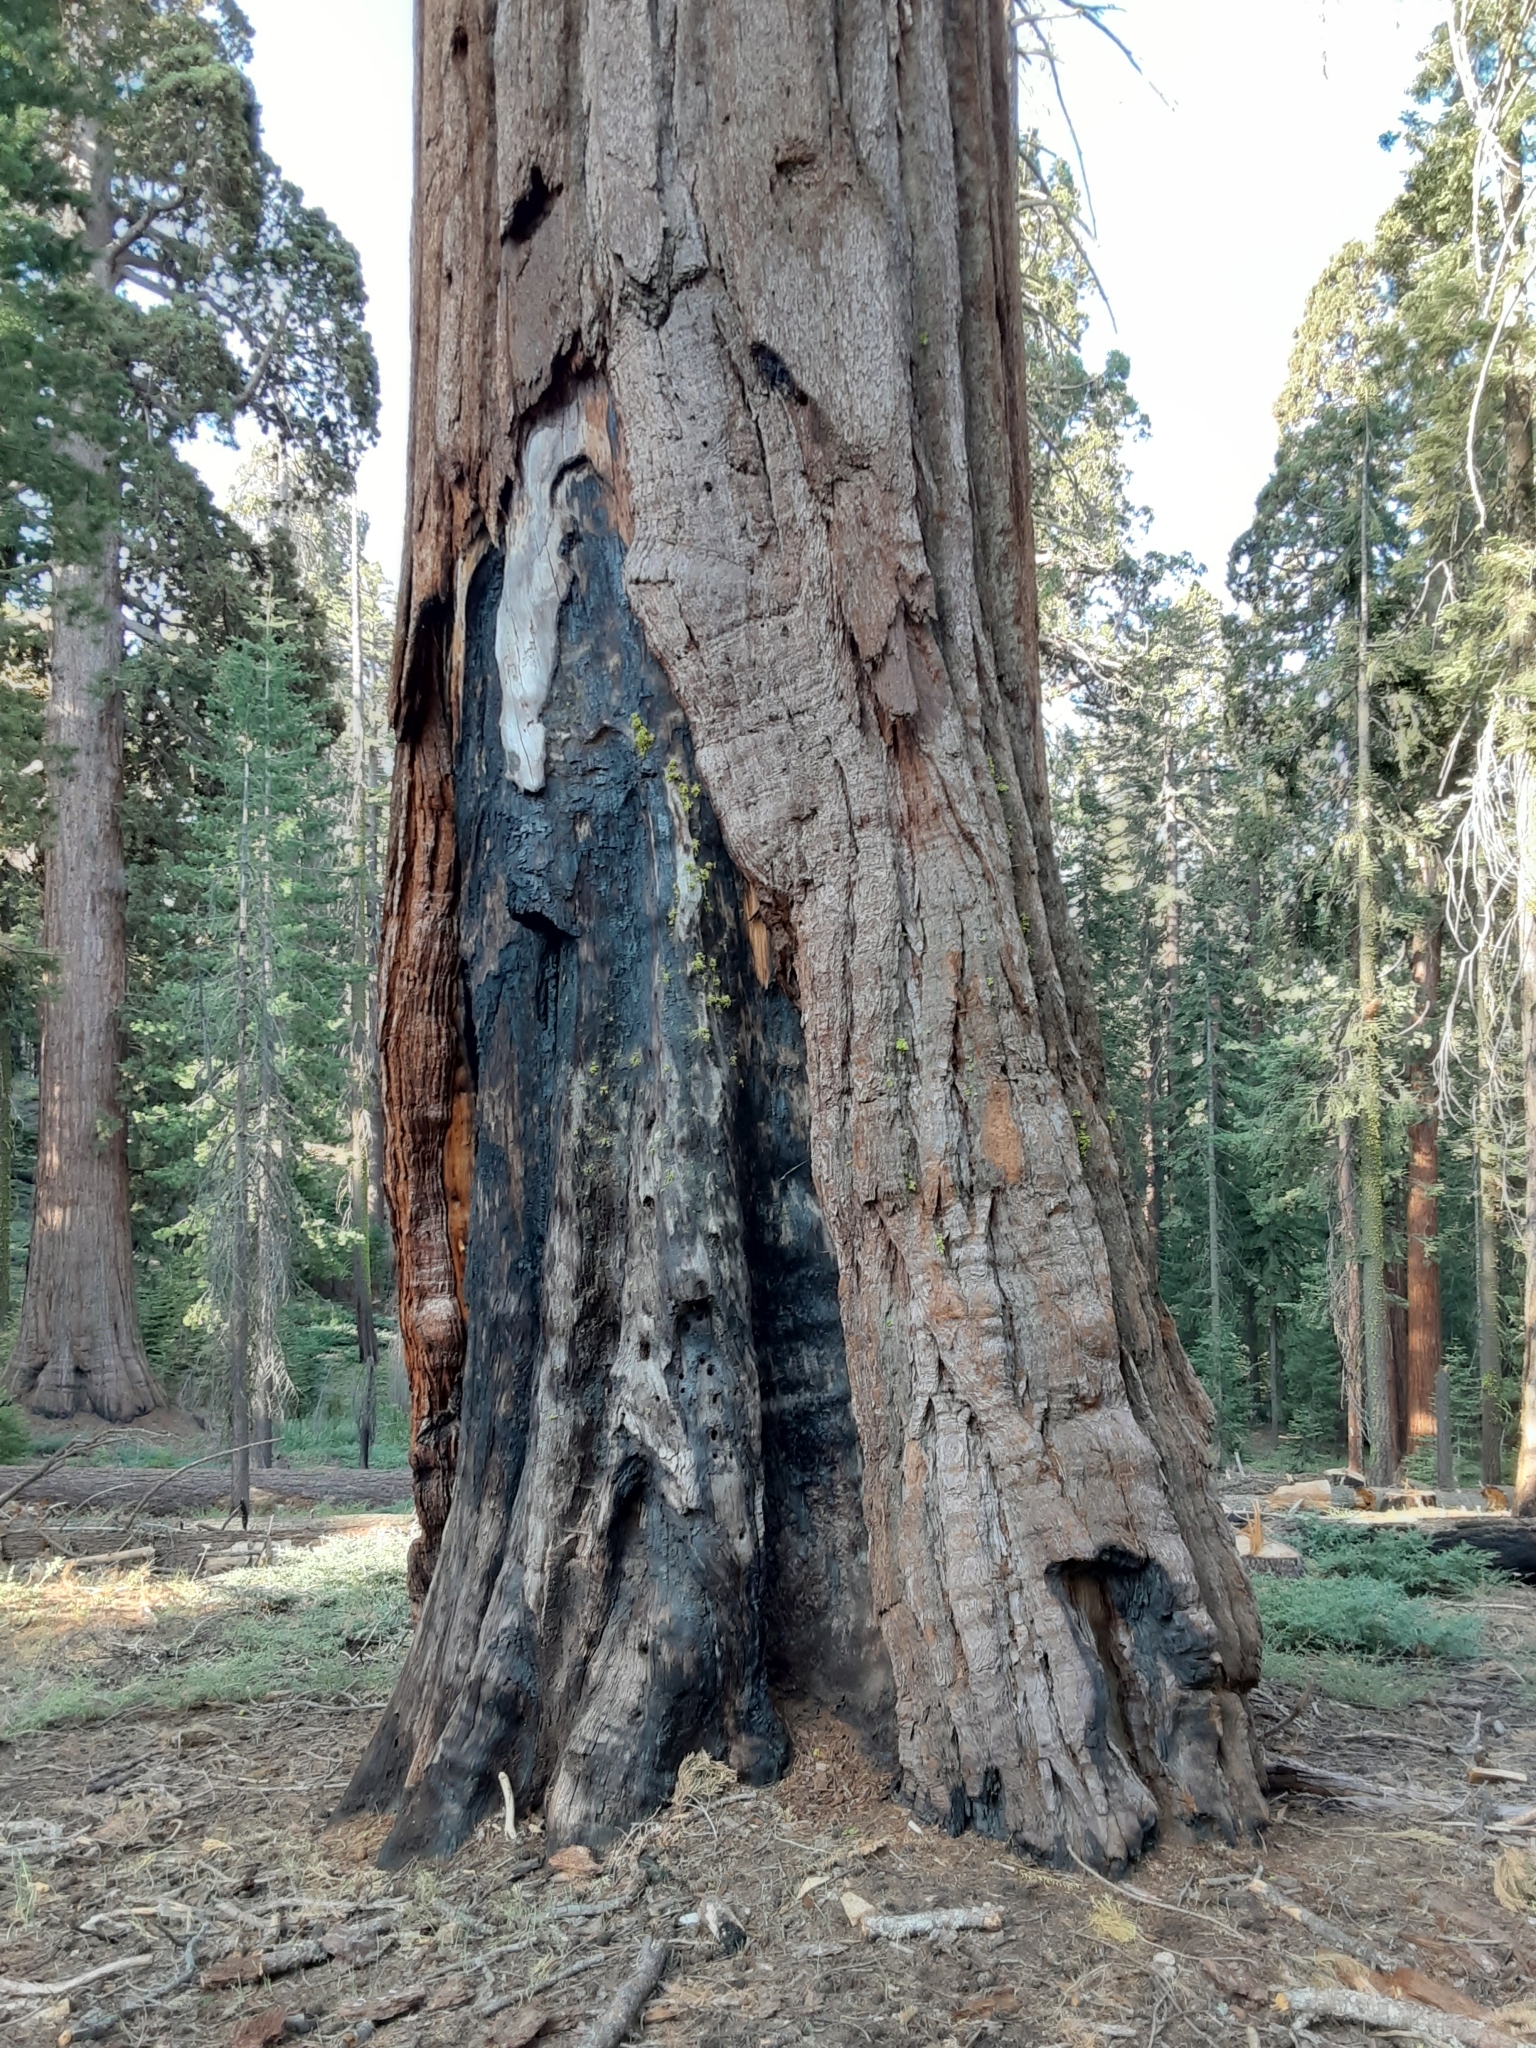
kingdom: Plantae
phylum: Tracheophyta
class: Pinopsida
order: Pinales
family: Cupressaceae
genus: Sequoiadendron
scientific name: Sequoiadendron giganteum
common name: Wellingtonia
